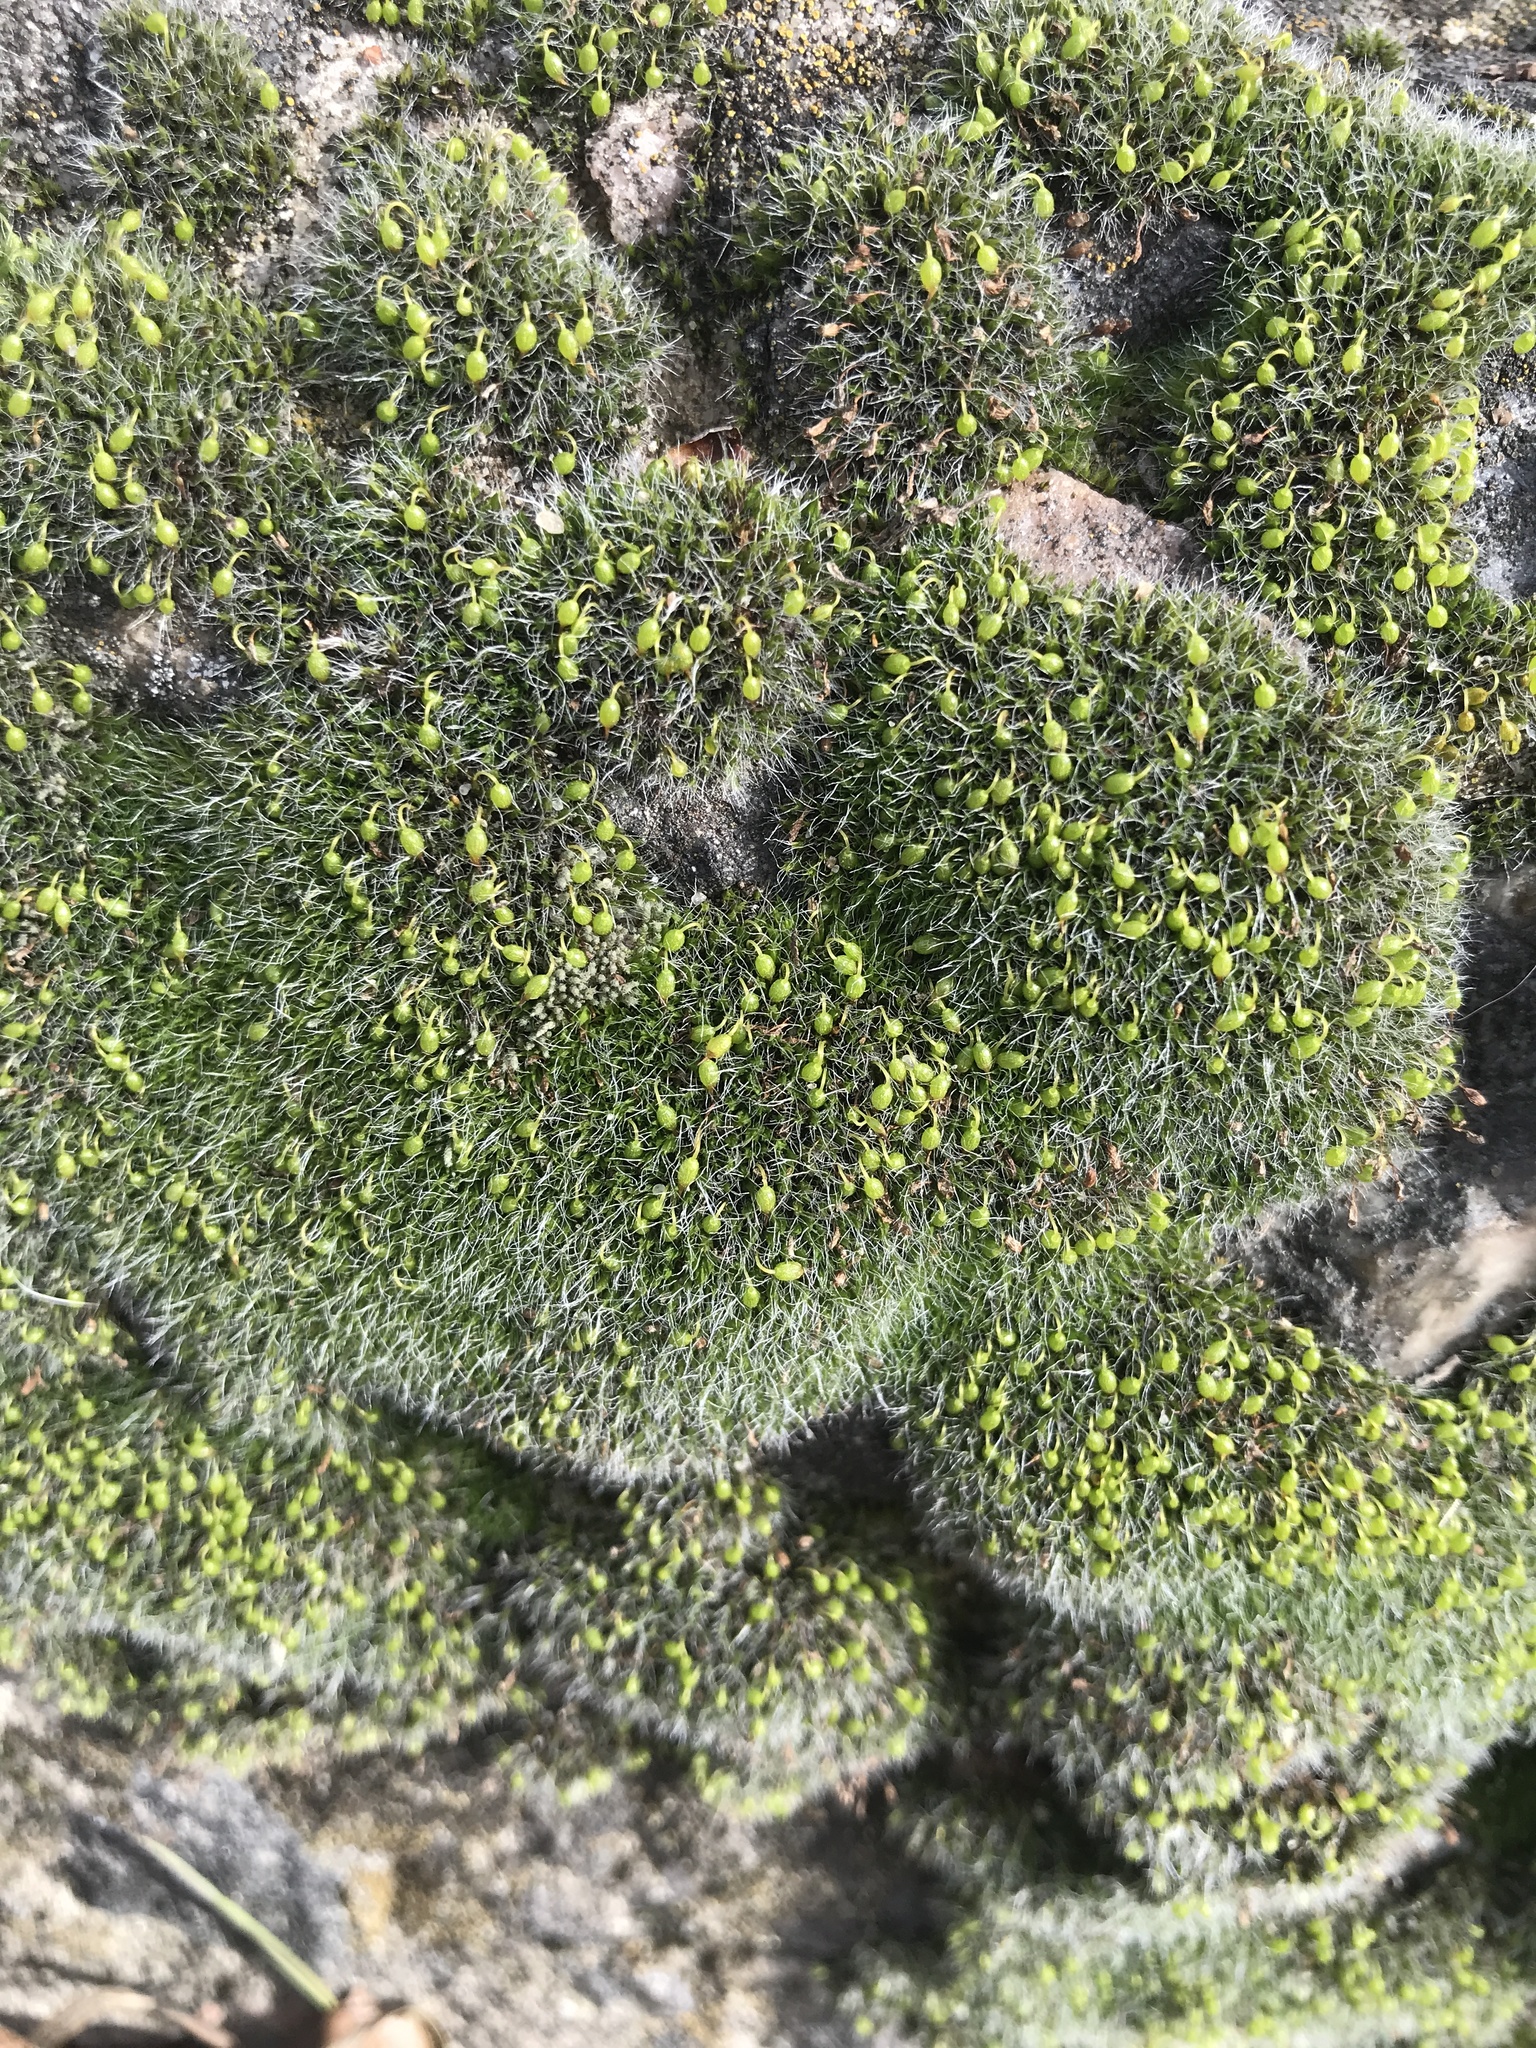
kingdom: Plantae
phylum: Bryophyta
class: Bryopsida
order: Grimmiales
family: Grimmiaceae
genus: Grimmia
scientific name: Grimmia pulvinata
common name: Grey-cushioned grimmia
